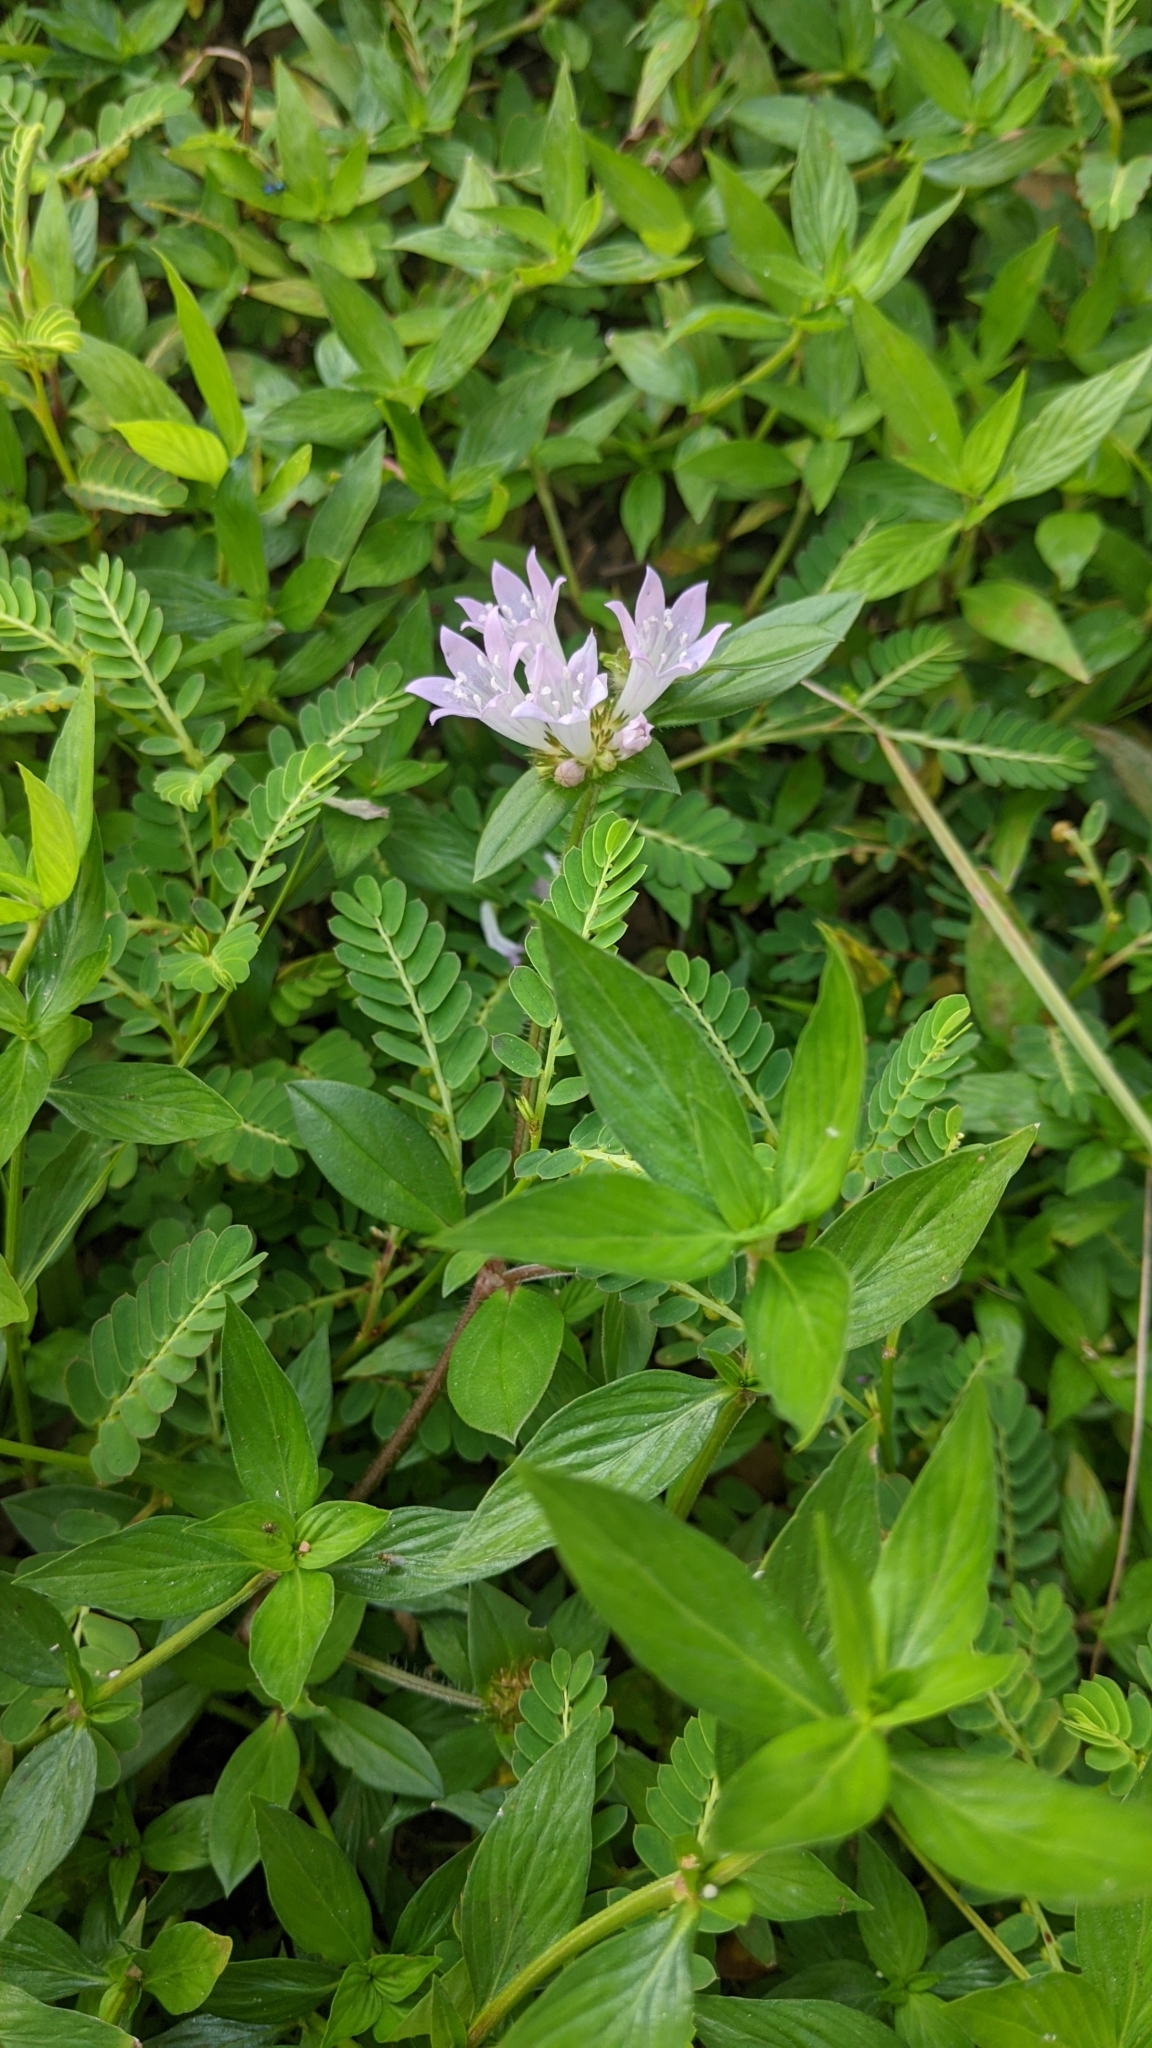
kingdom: Plantae
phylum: Tracheophyta
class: Magnoliopsida
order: Gentianales
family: Rubiaceae
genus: Richardia
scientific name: Richardia grandiflora
